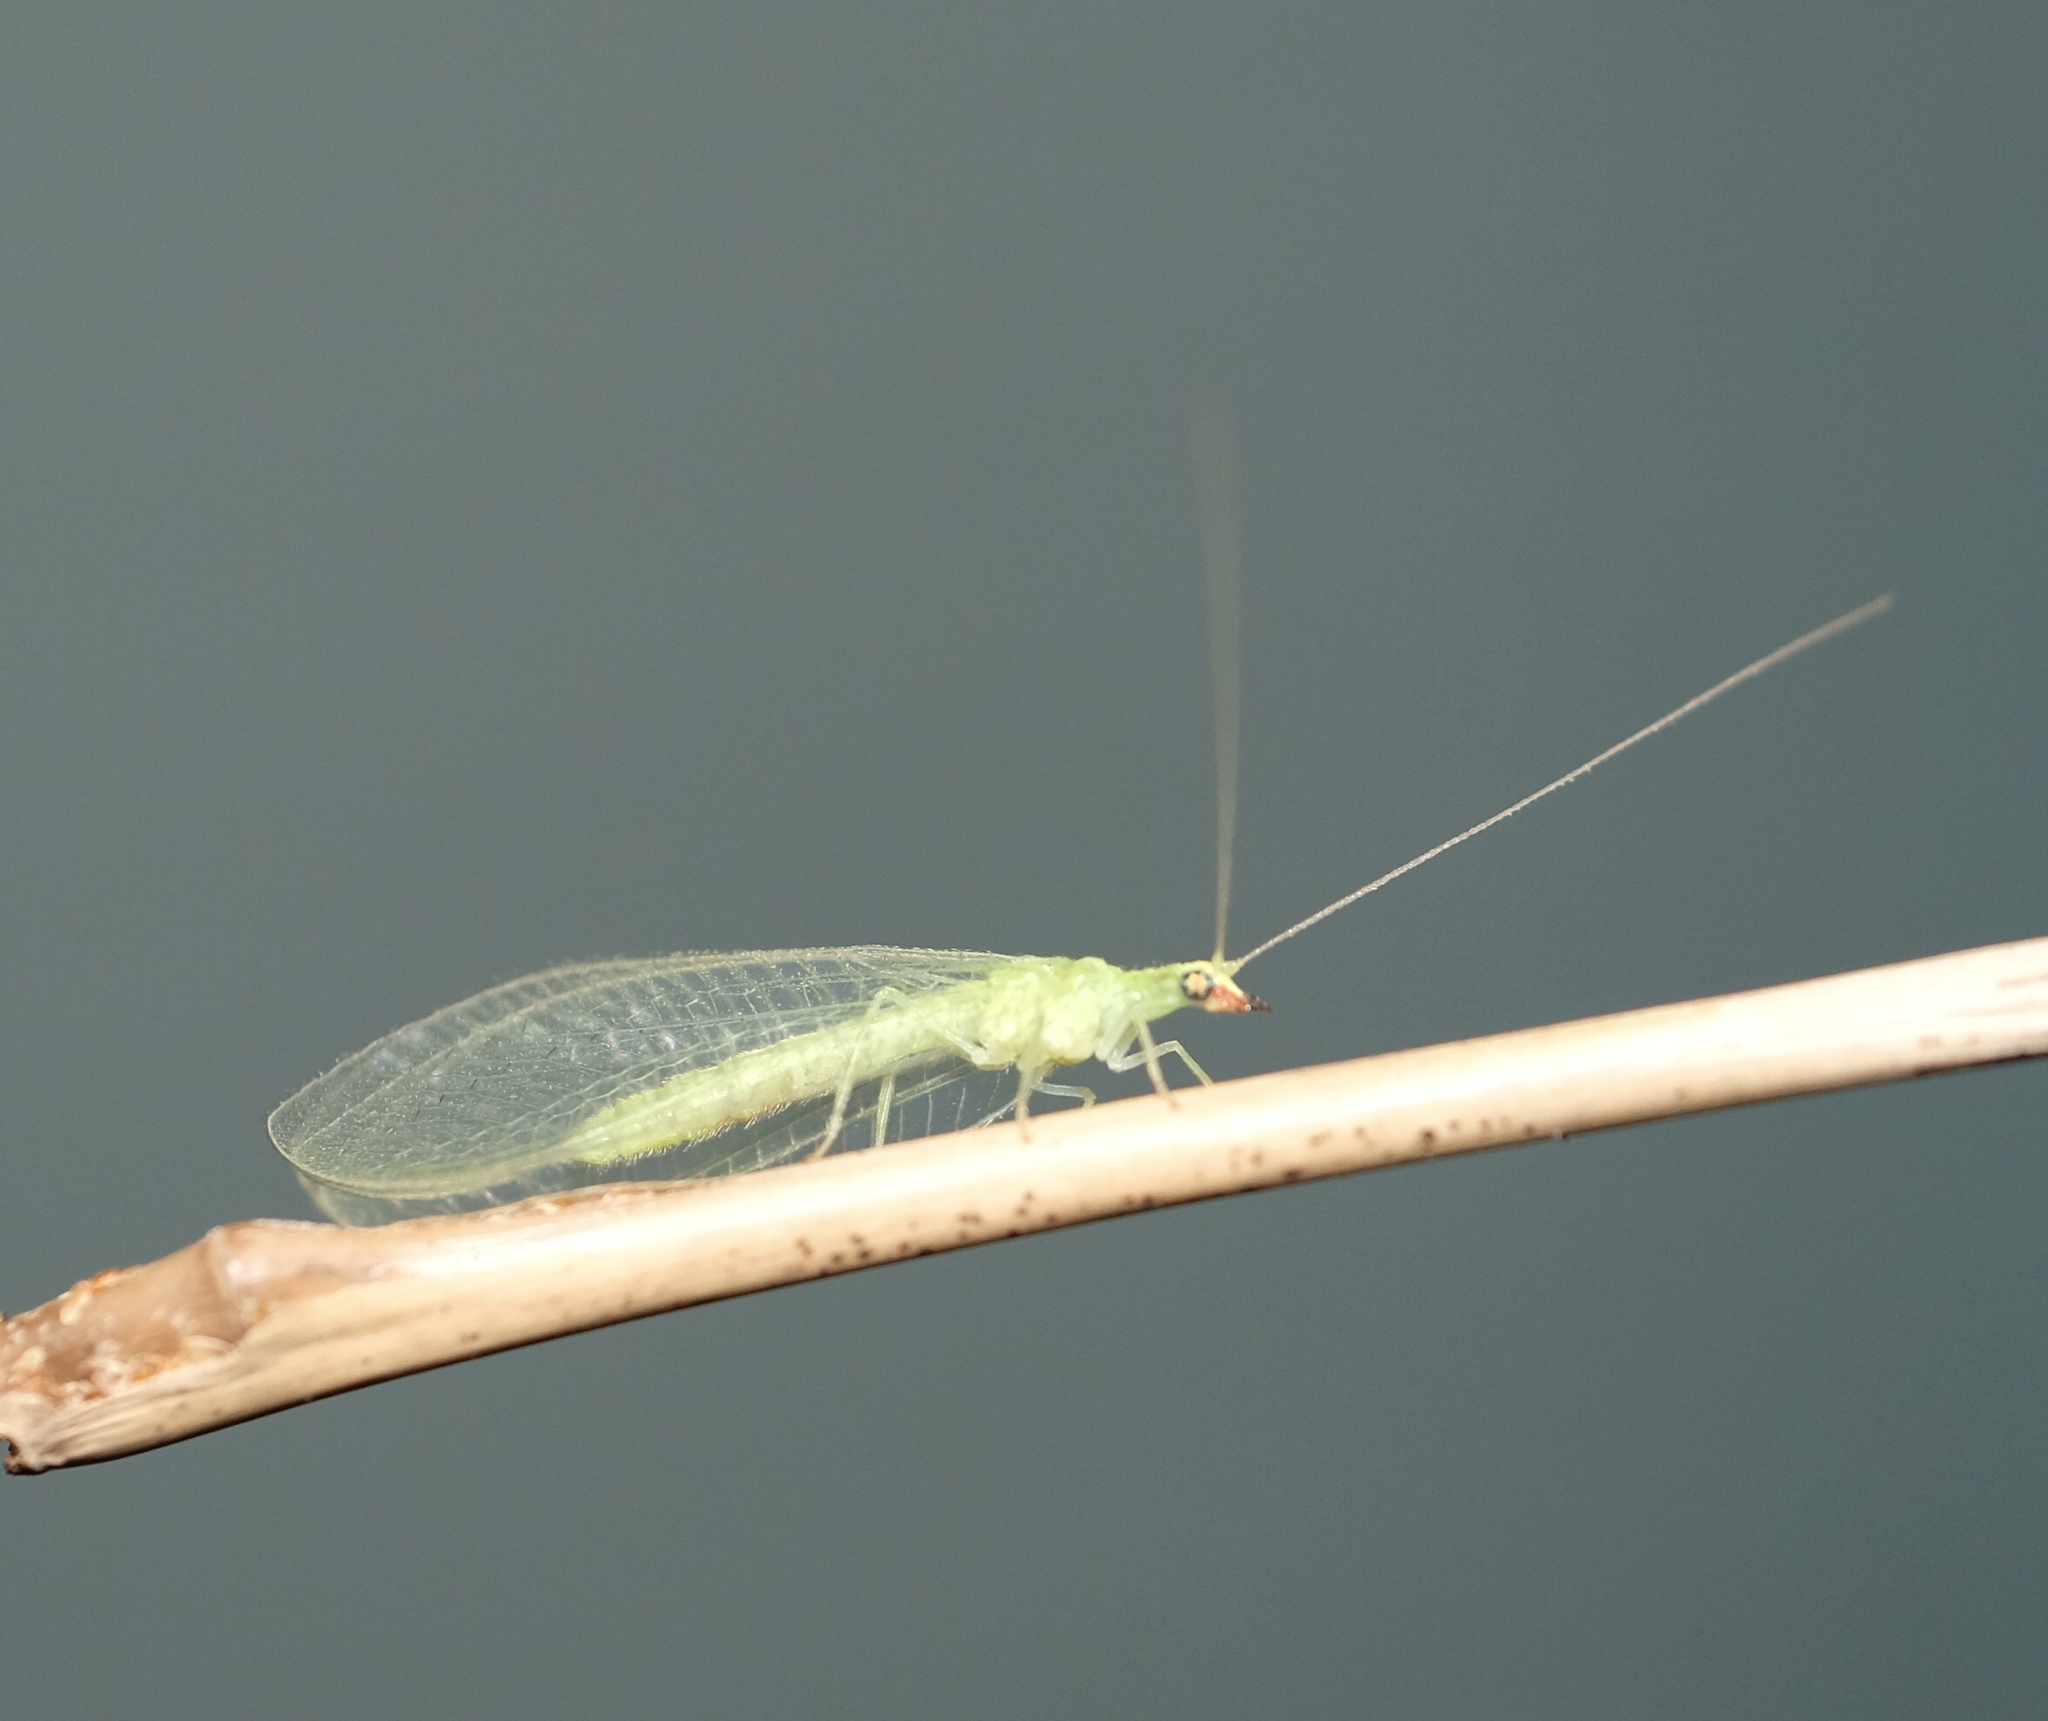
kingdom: Animalia
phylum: Arthropoda
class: Insecta
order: Neuroptera
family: Chrysopidae
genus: Chrysoperla
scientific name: Chrysoperla rufilabris
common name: Red-lipped green lacewing
